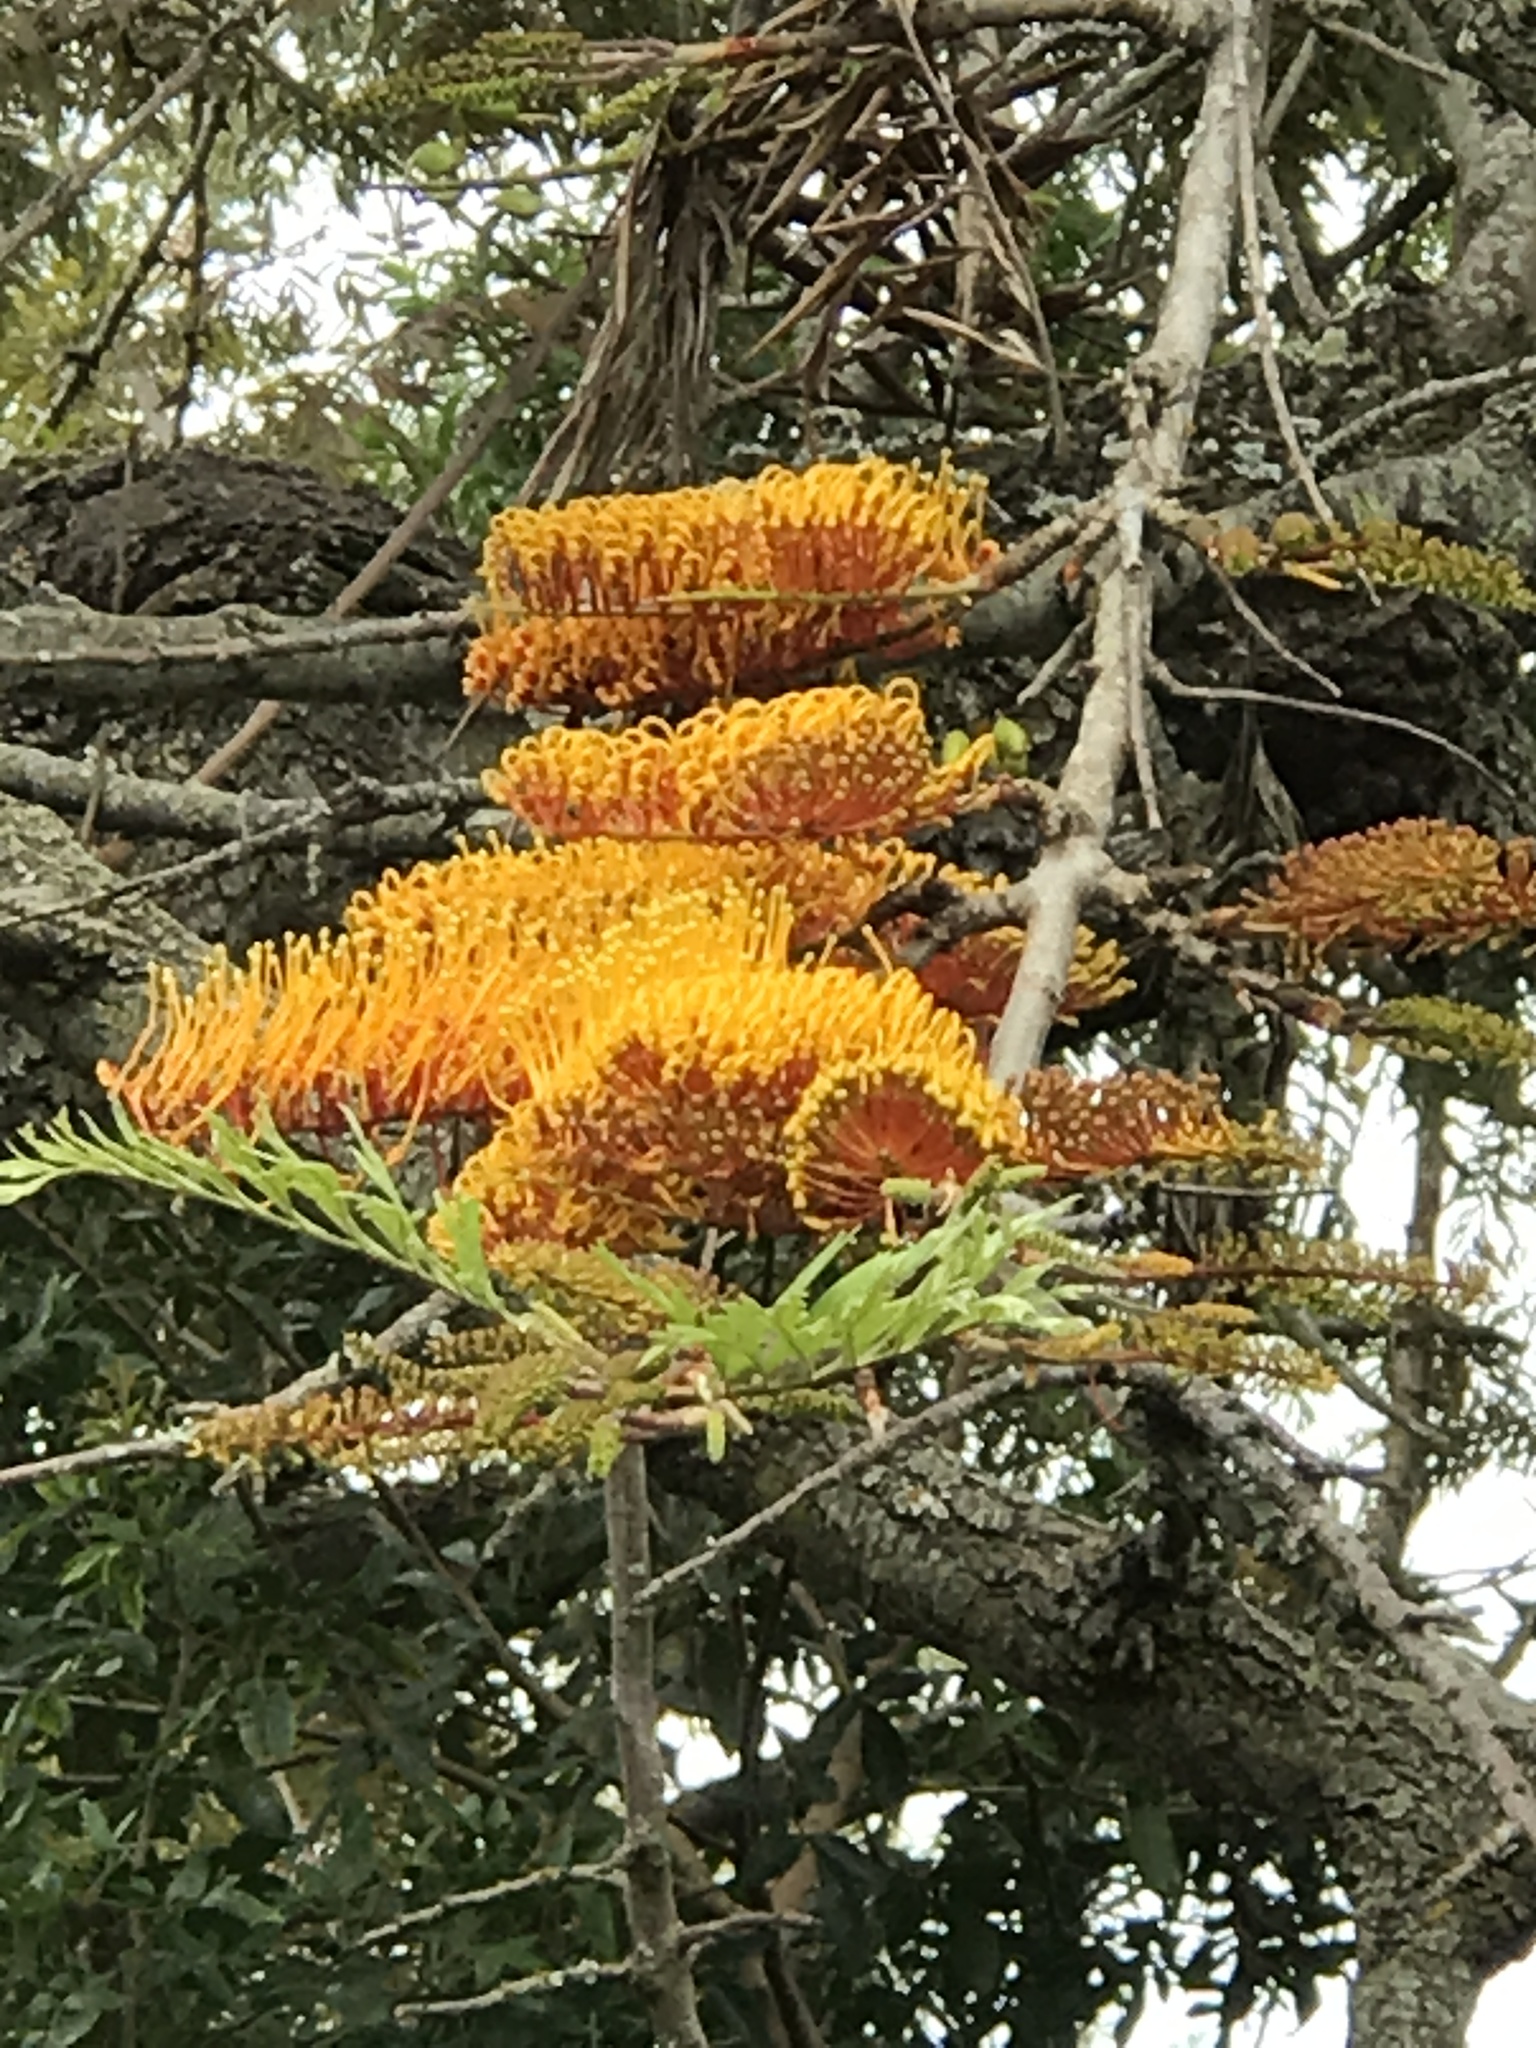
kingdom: Plantae
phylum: Tracheophyta
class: Magnoliopsida
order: Proteales
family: Proteaceae
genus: Grevillea
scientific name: Grevillea robusta
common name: Silkoak
